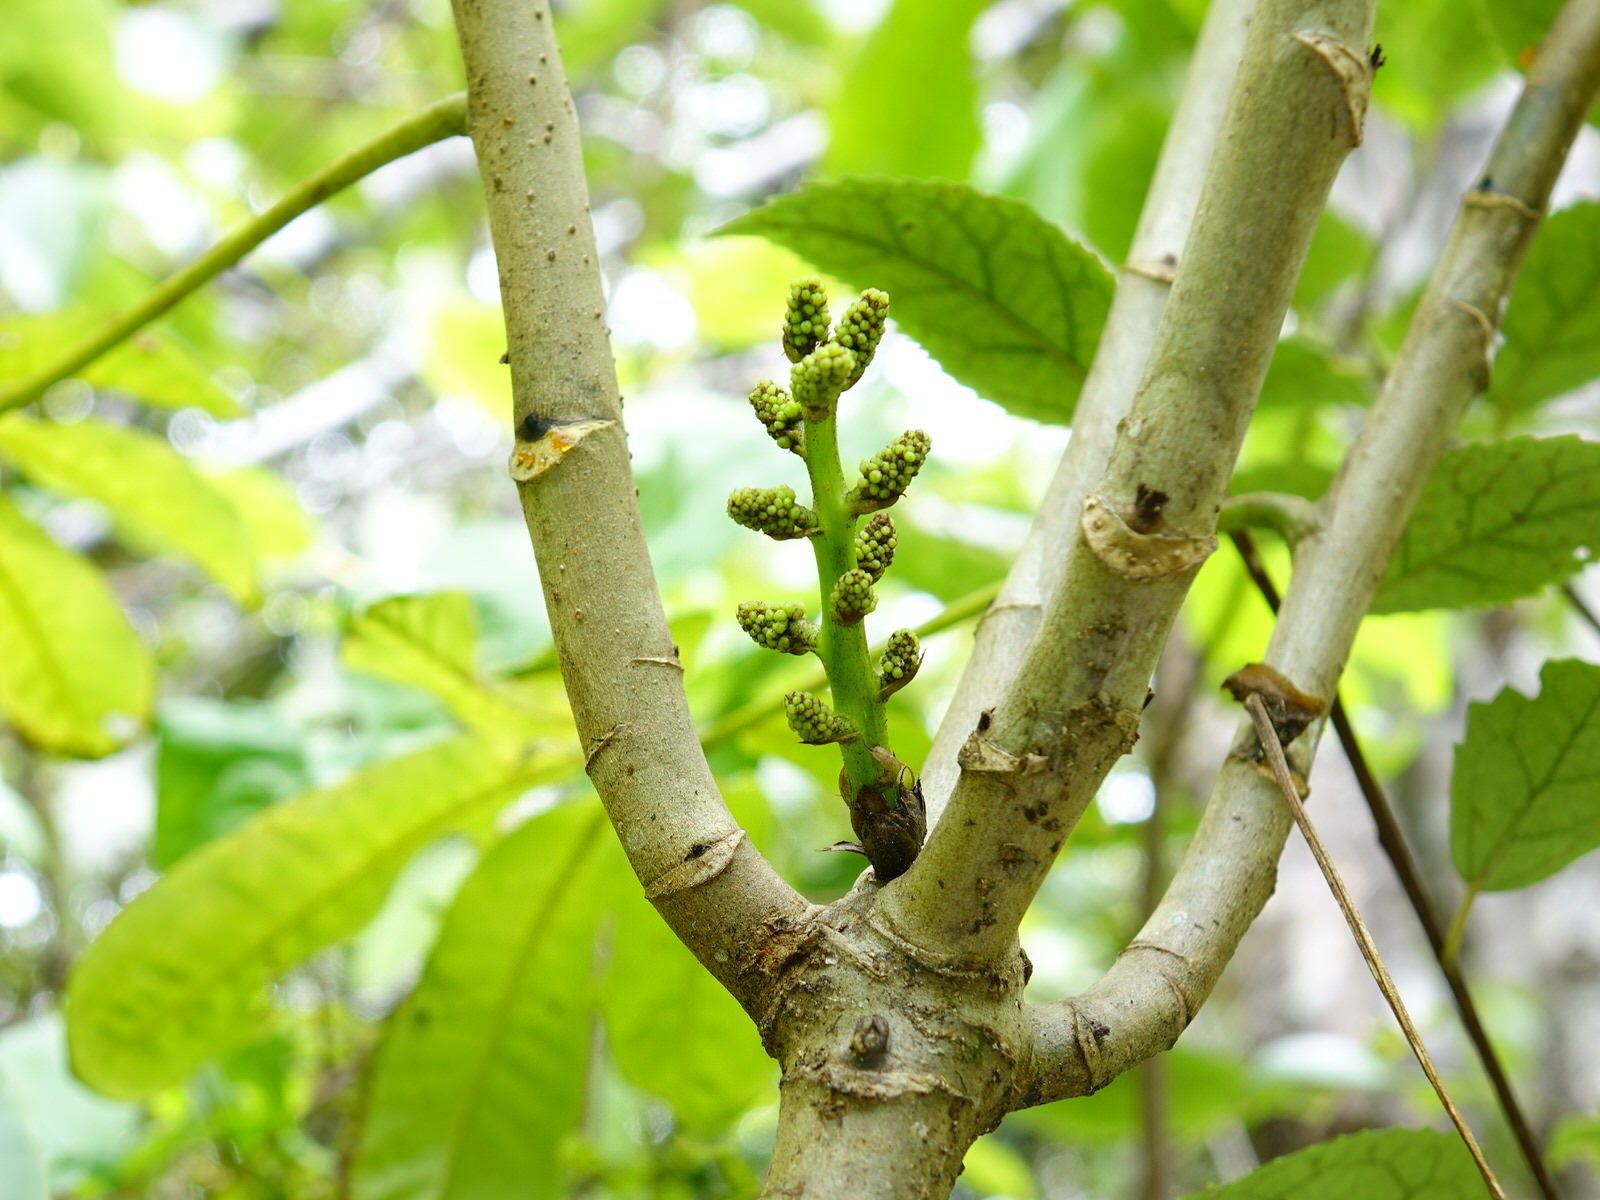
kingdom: Plantae
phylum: Tracheophyta
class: Magnoliopsida
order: Apiales
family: Araliaceae
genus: Schefflera
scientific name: Schefflera digitata
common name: Pate
